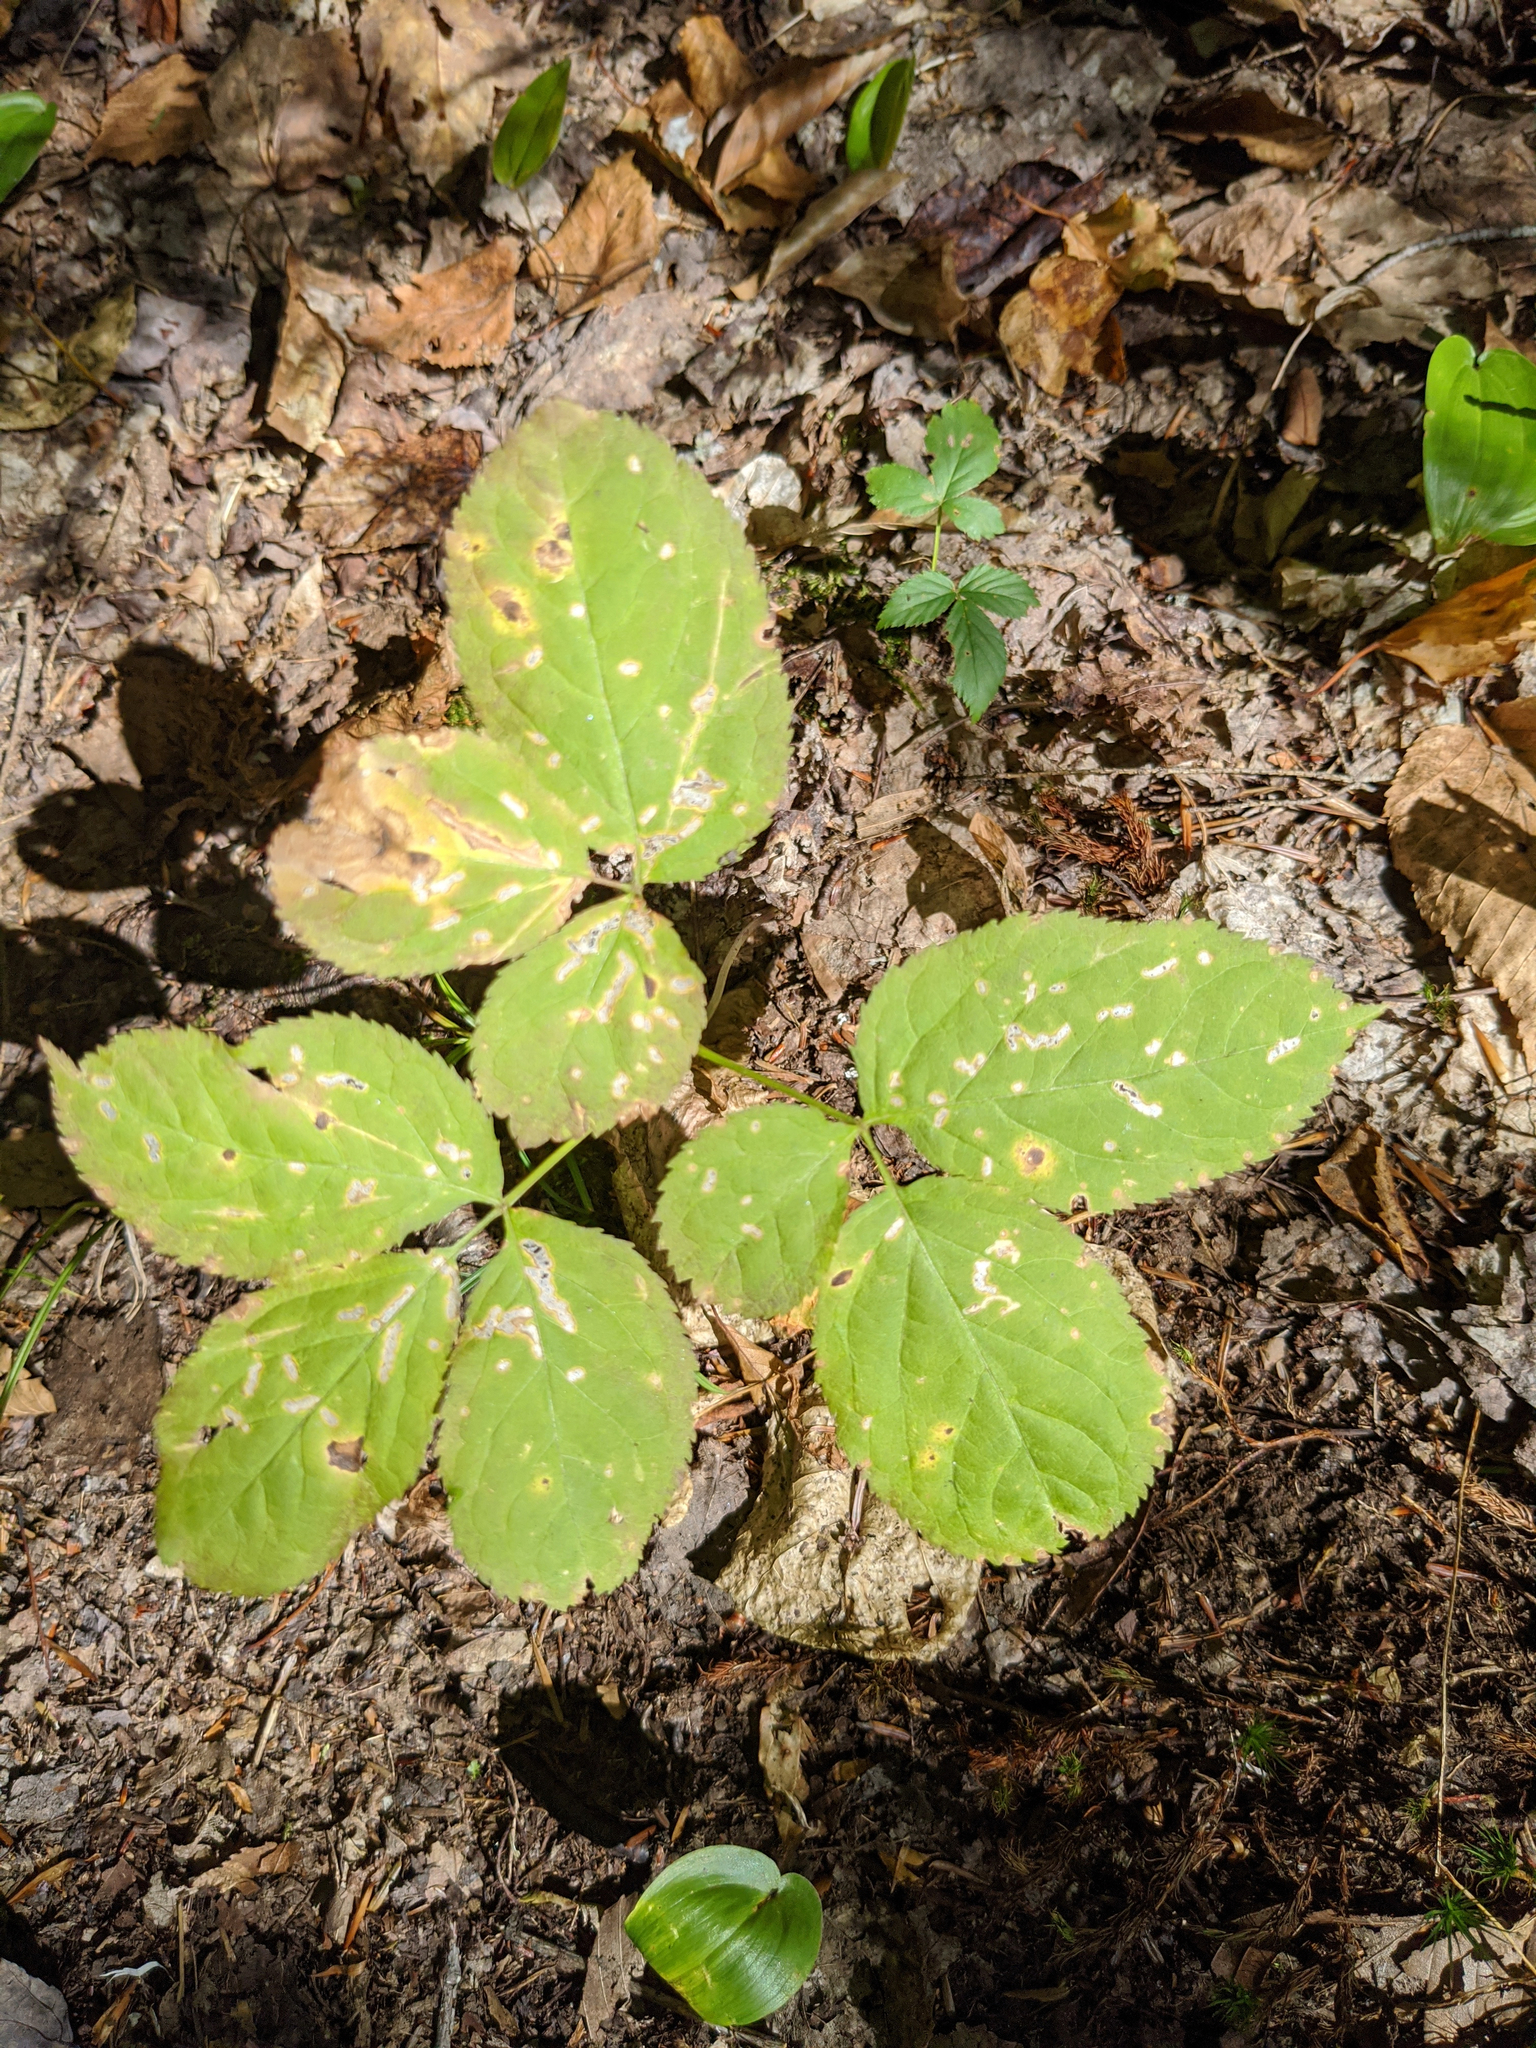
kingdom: Plantae
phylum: Tracheophyta
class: Magnoliopsida
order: Apiales
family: Araliaceae
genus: Aralia
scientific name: Aralia nudicaulis
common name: Wild sarsaparilla
